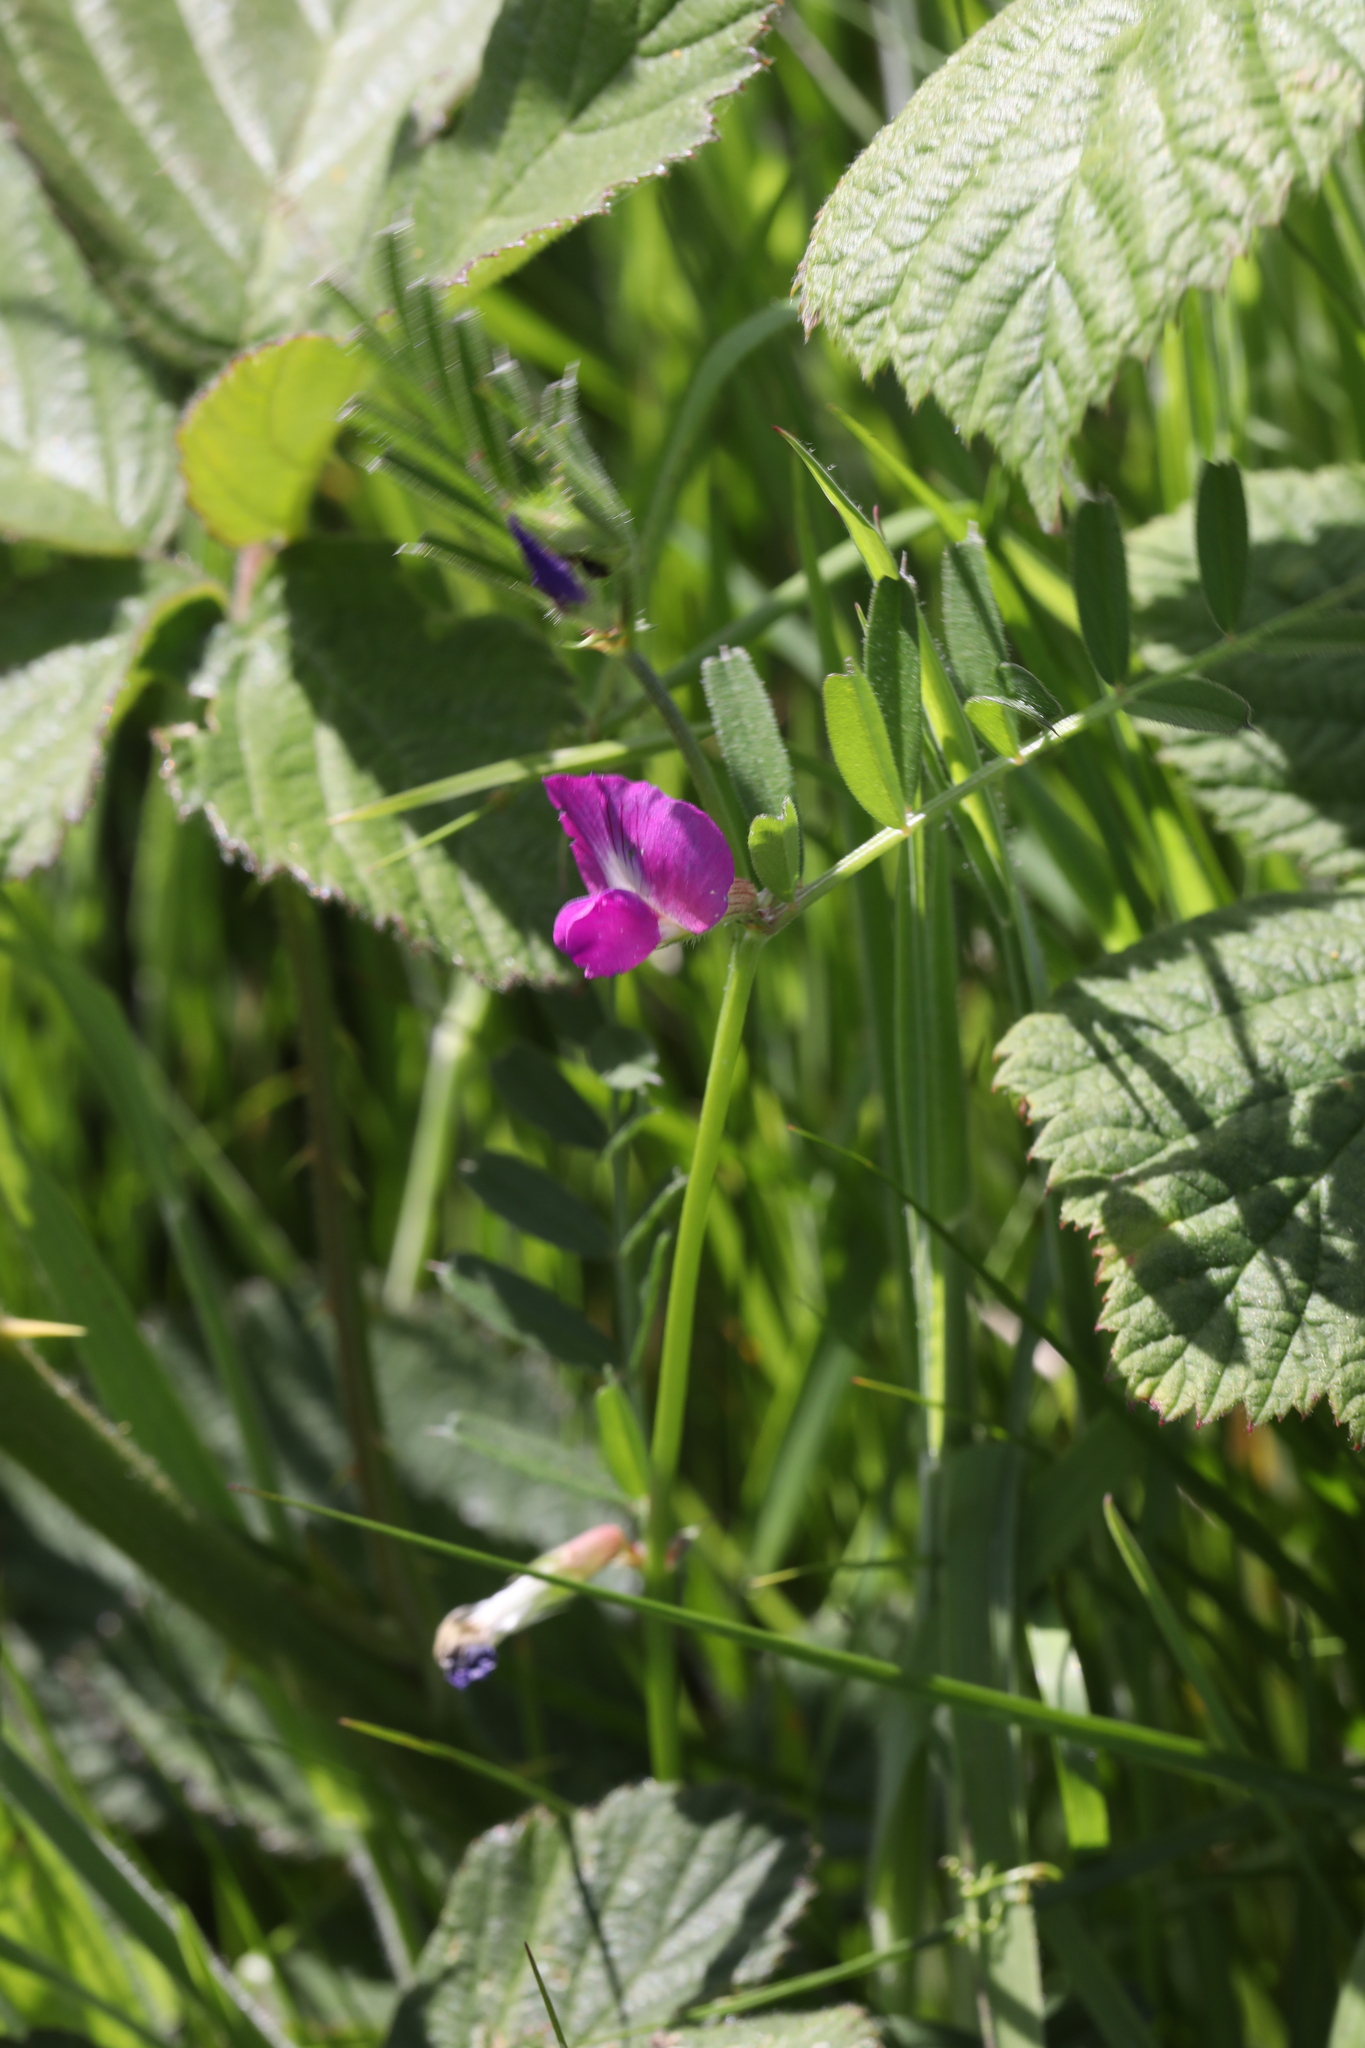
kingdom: Plantae
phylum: Tracheophyta
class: Magnoliopsida
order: Fabales
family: Fabaceae
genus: Vicia
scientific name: Vicia sativa
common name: Garden vetch
